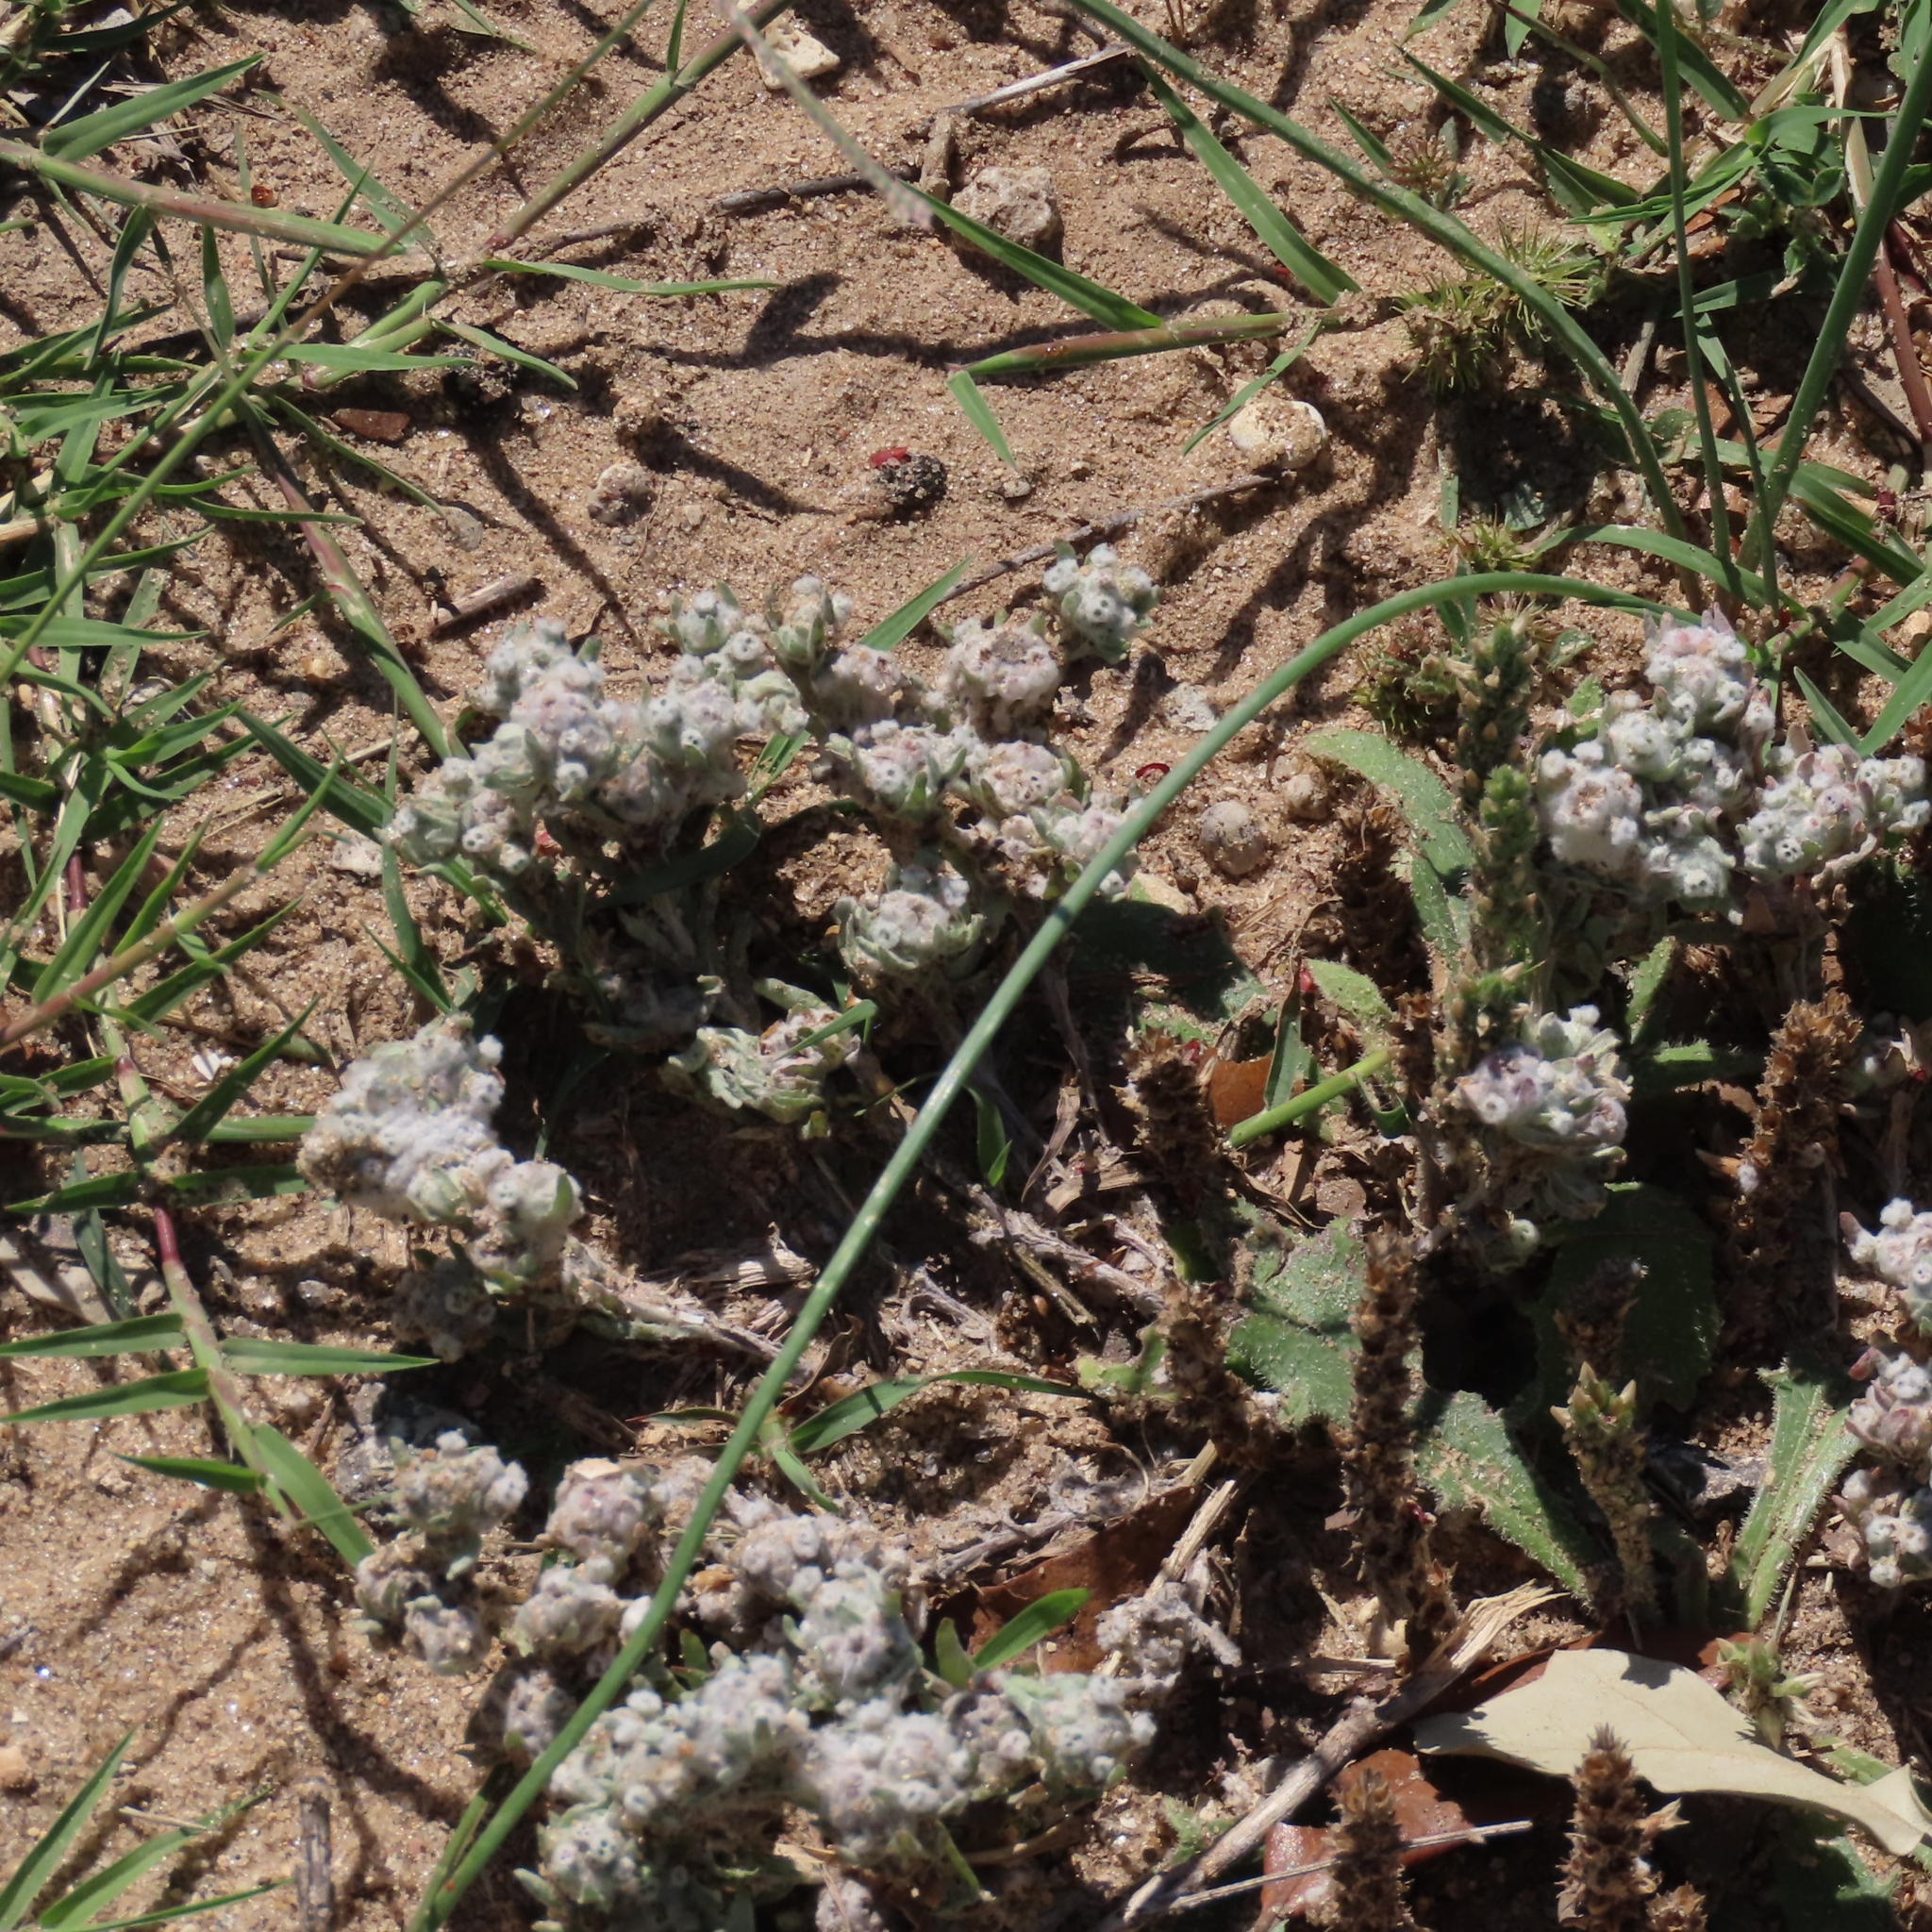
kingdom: Plantae
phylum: Tracheophyta
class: Magnoliopsida
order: Asterales
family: Asteraceae
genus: Diaperia
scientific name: Diaperia verna
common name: Many-stem rabbit-tobacco
